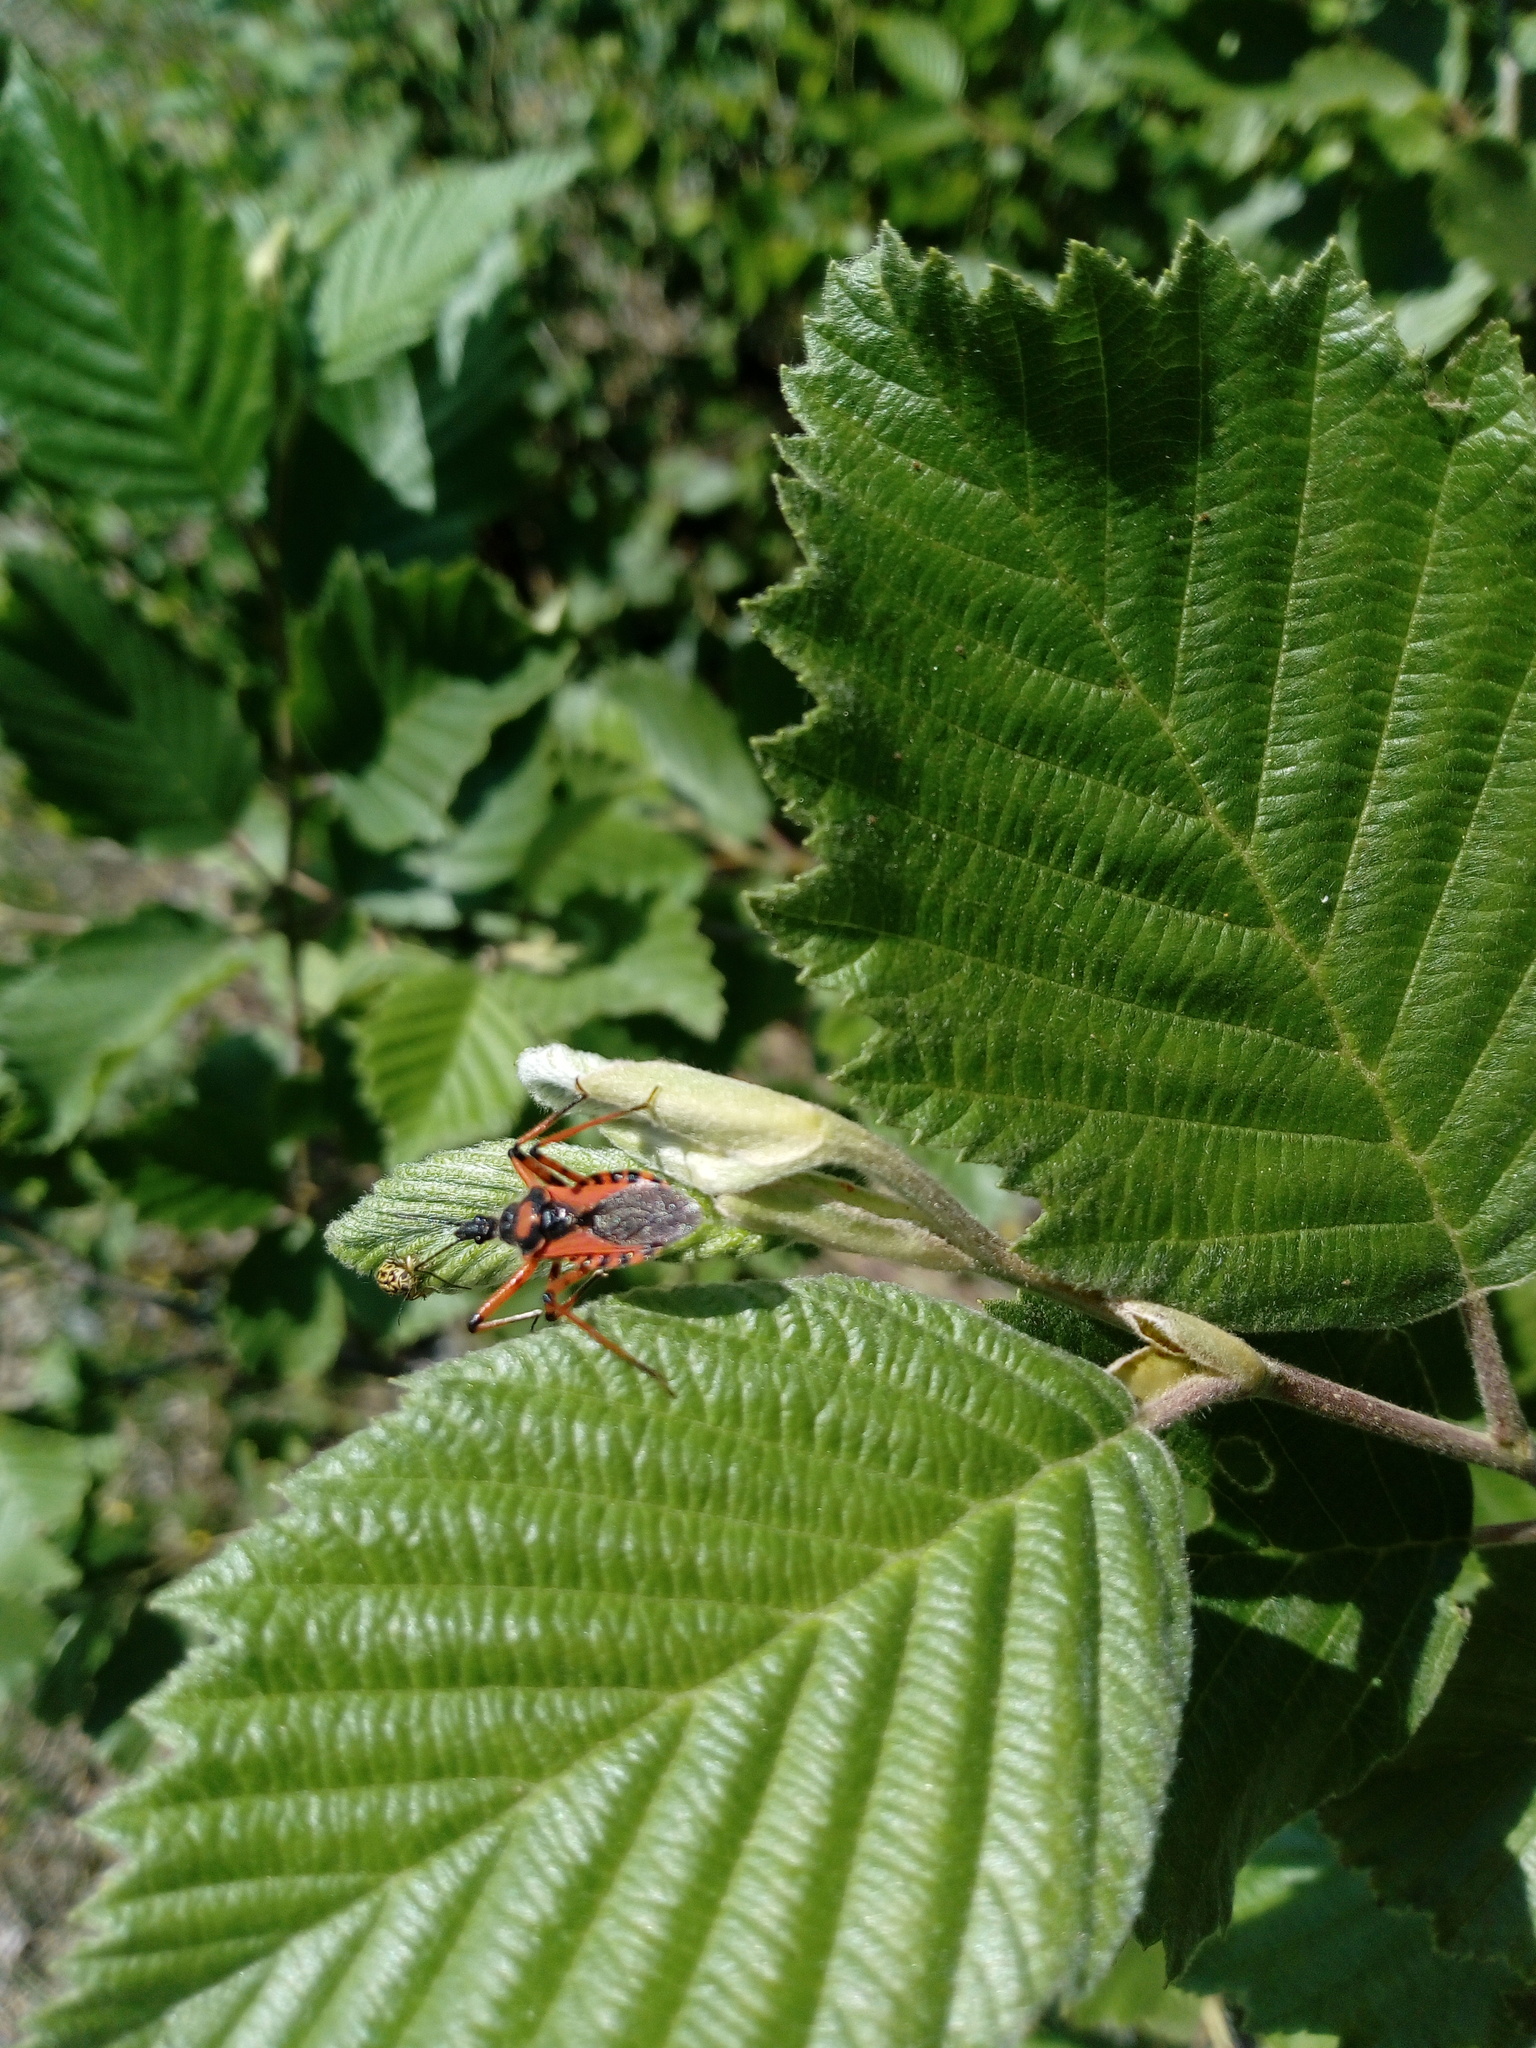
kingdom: Animalia
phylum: Arthropoda
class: Insecta
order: Hemiptera
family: Reduviidae
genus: Rhynocoris
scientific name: Rhynocoris iracundus
